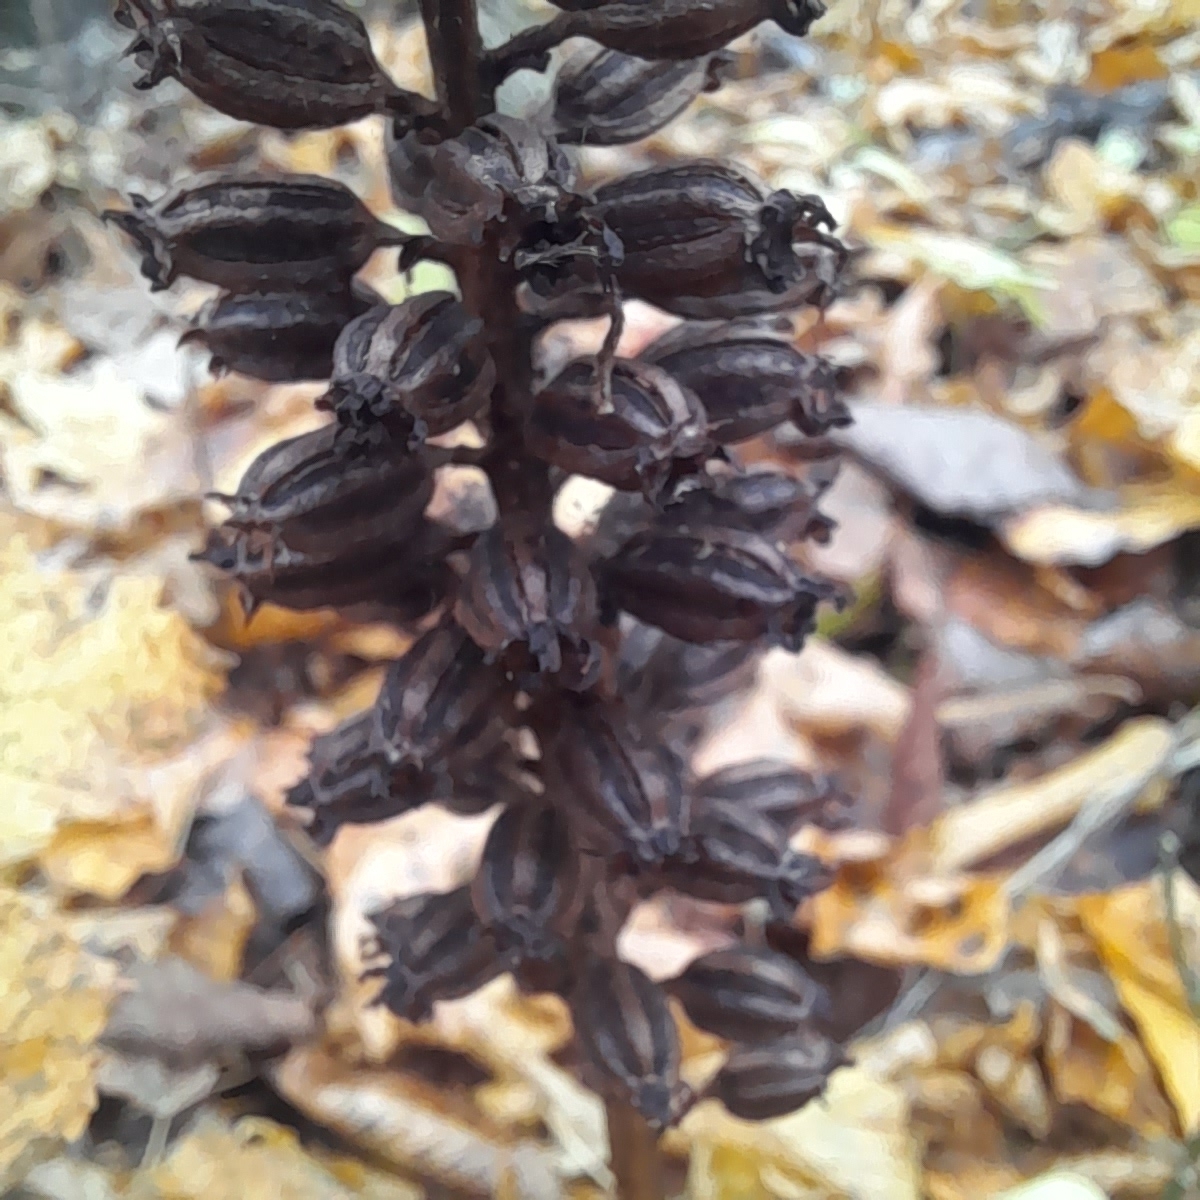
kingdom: Plantae
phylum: Tracheophyta
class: Liliopsida
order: Asparagales
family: Orchidaceae
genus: Neottia
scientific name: Neottia nidus-avis
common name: Bird's-nest orchid
